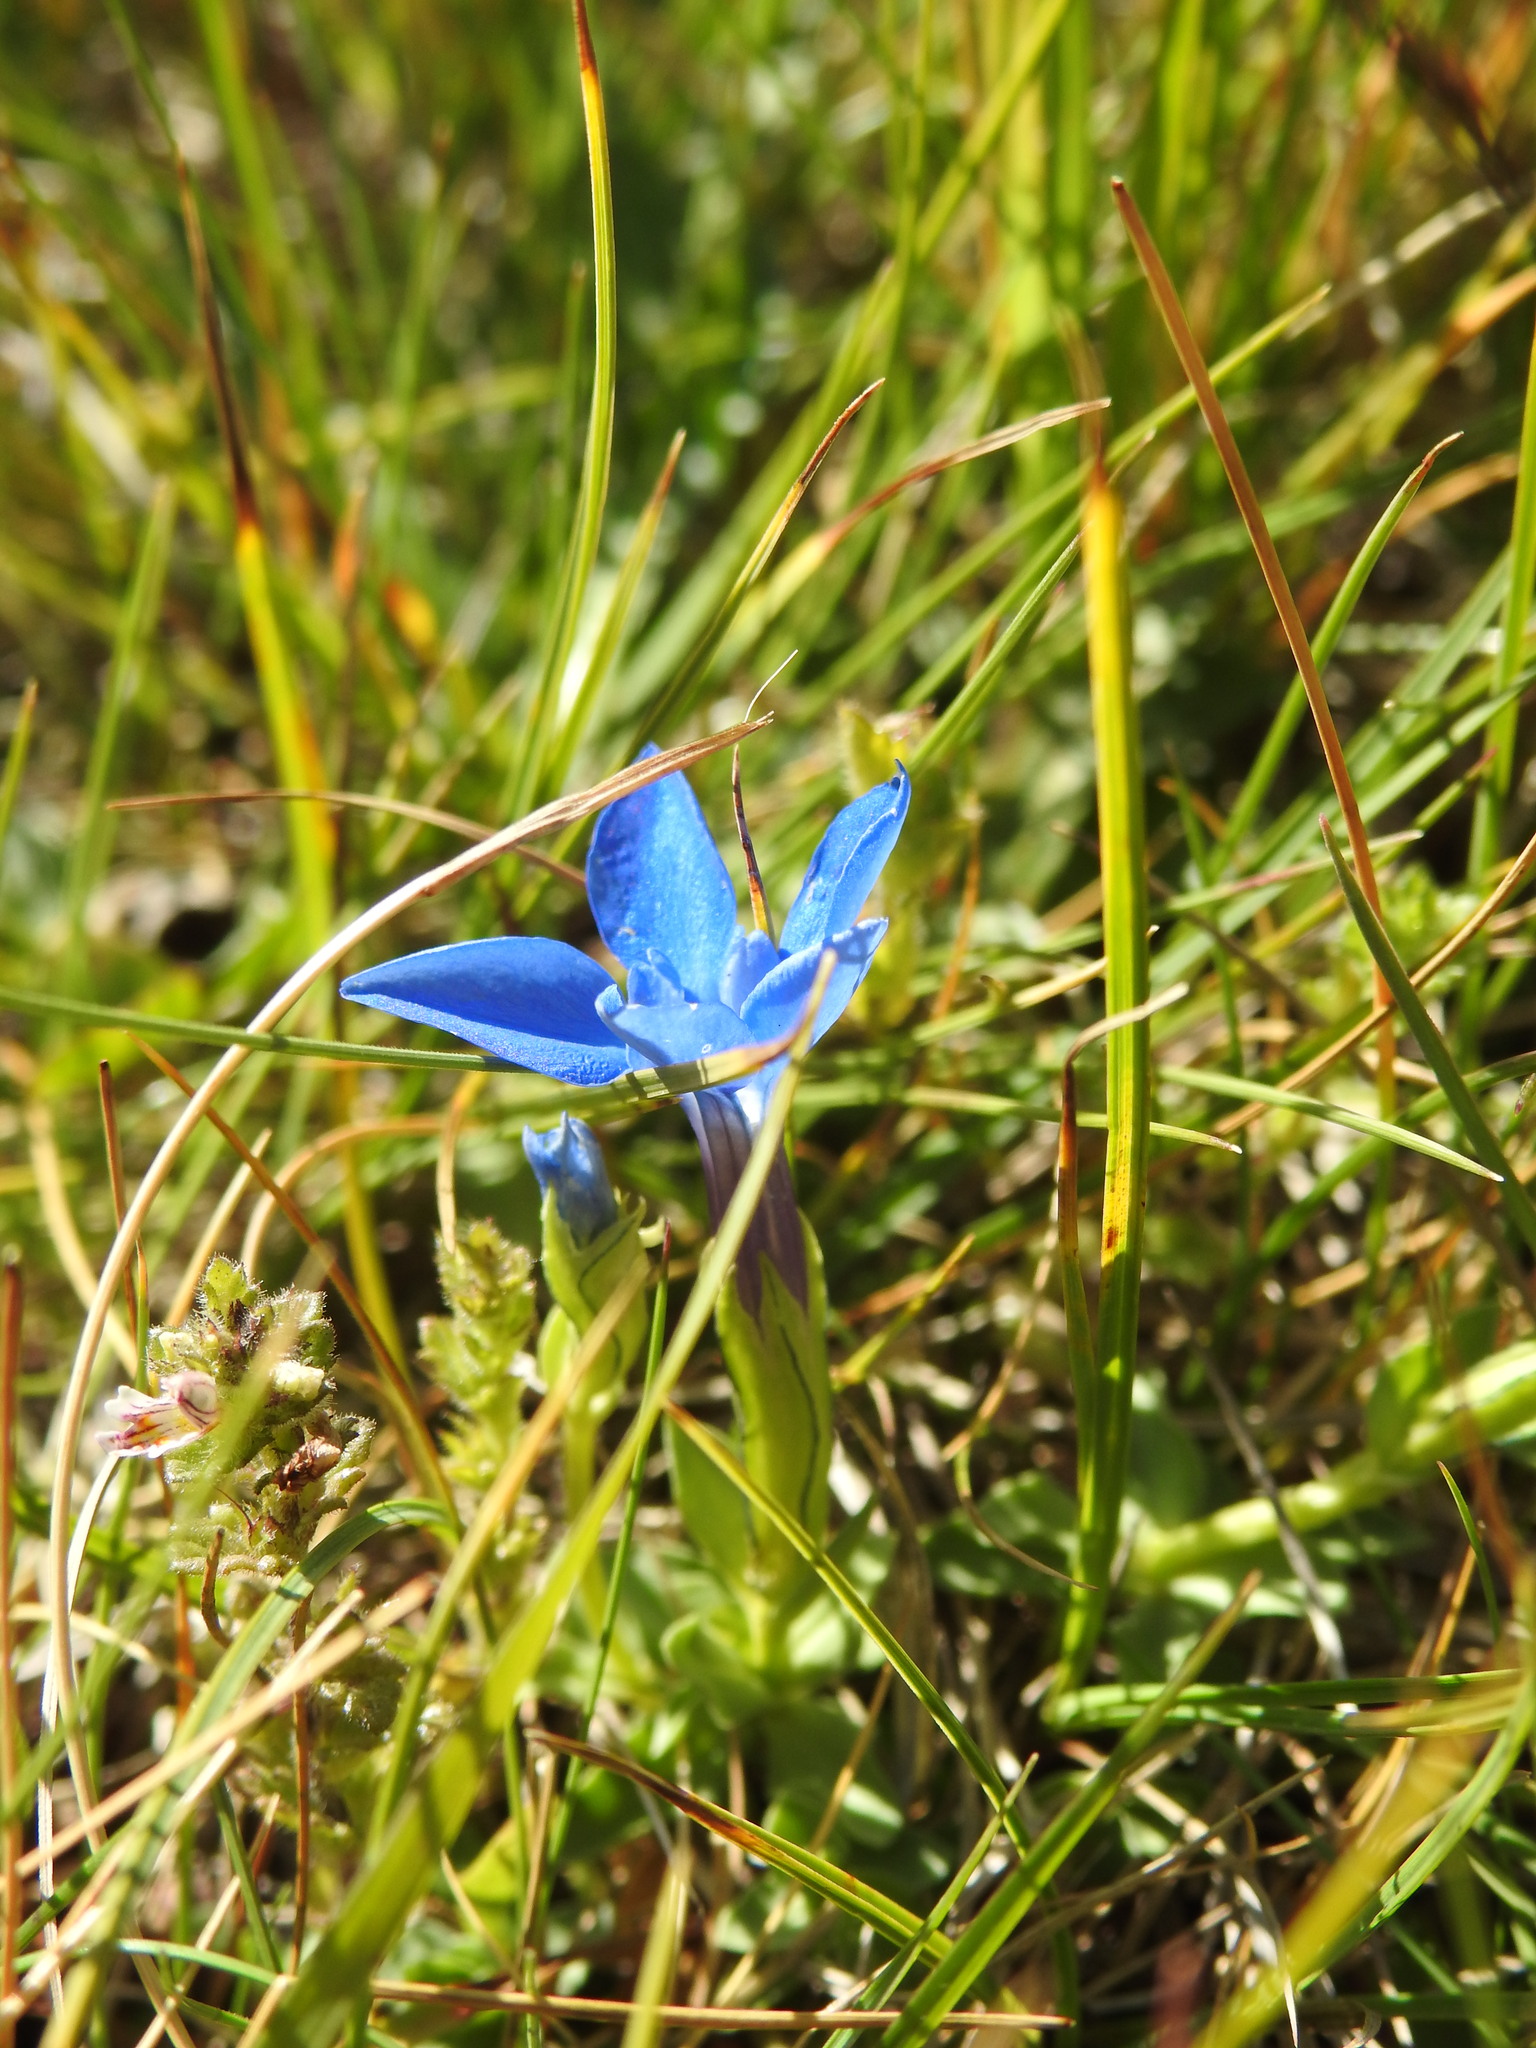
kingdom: Plantae
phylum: Tracheophyta
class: Magnoliopsida
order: Gentianales
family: Gentianaceae
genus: Gentiana
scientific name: Gentiana nivalis
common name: Alpine gentian
